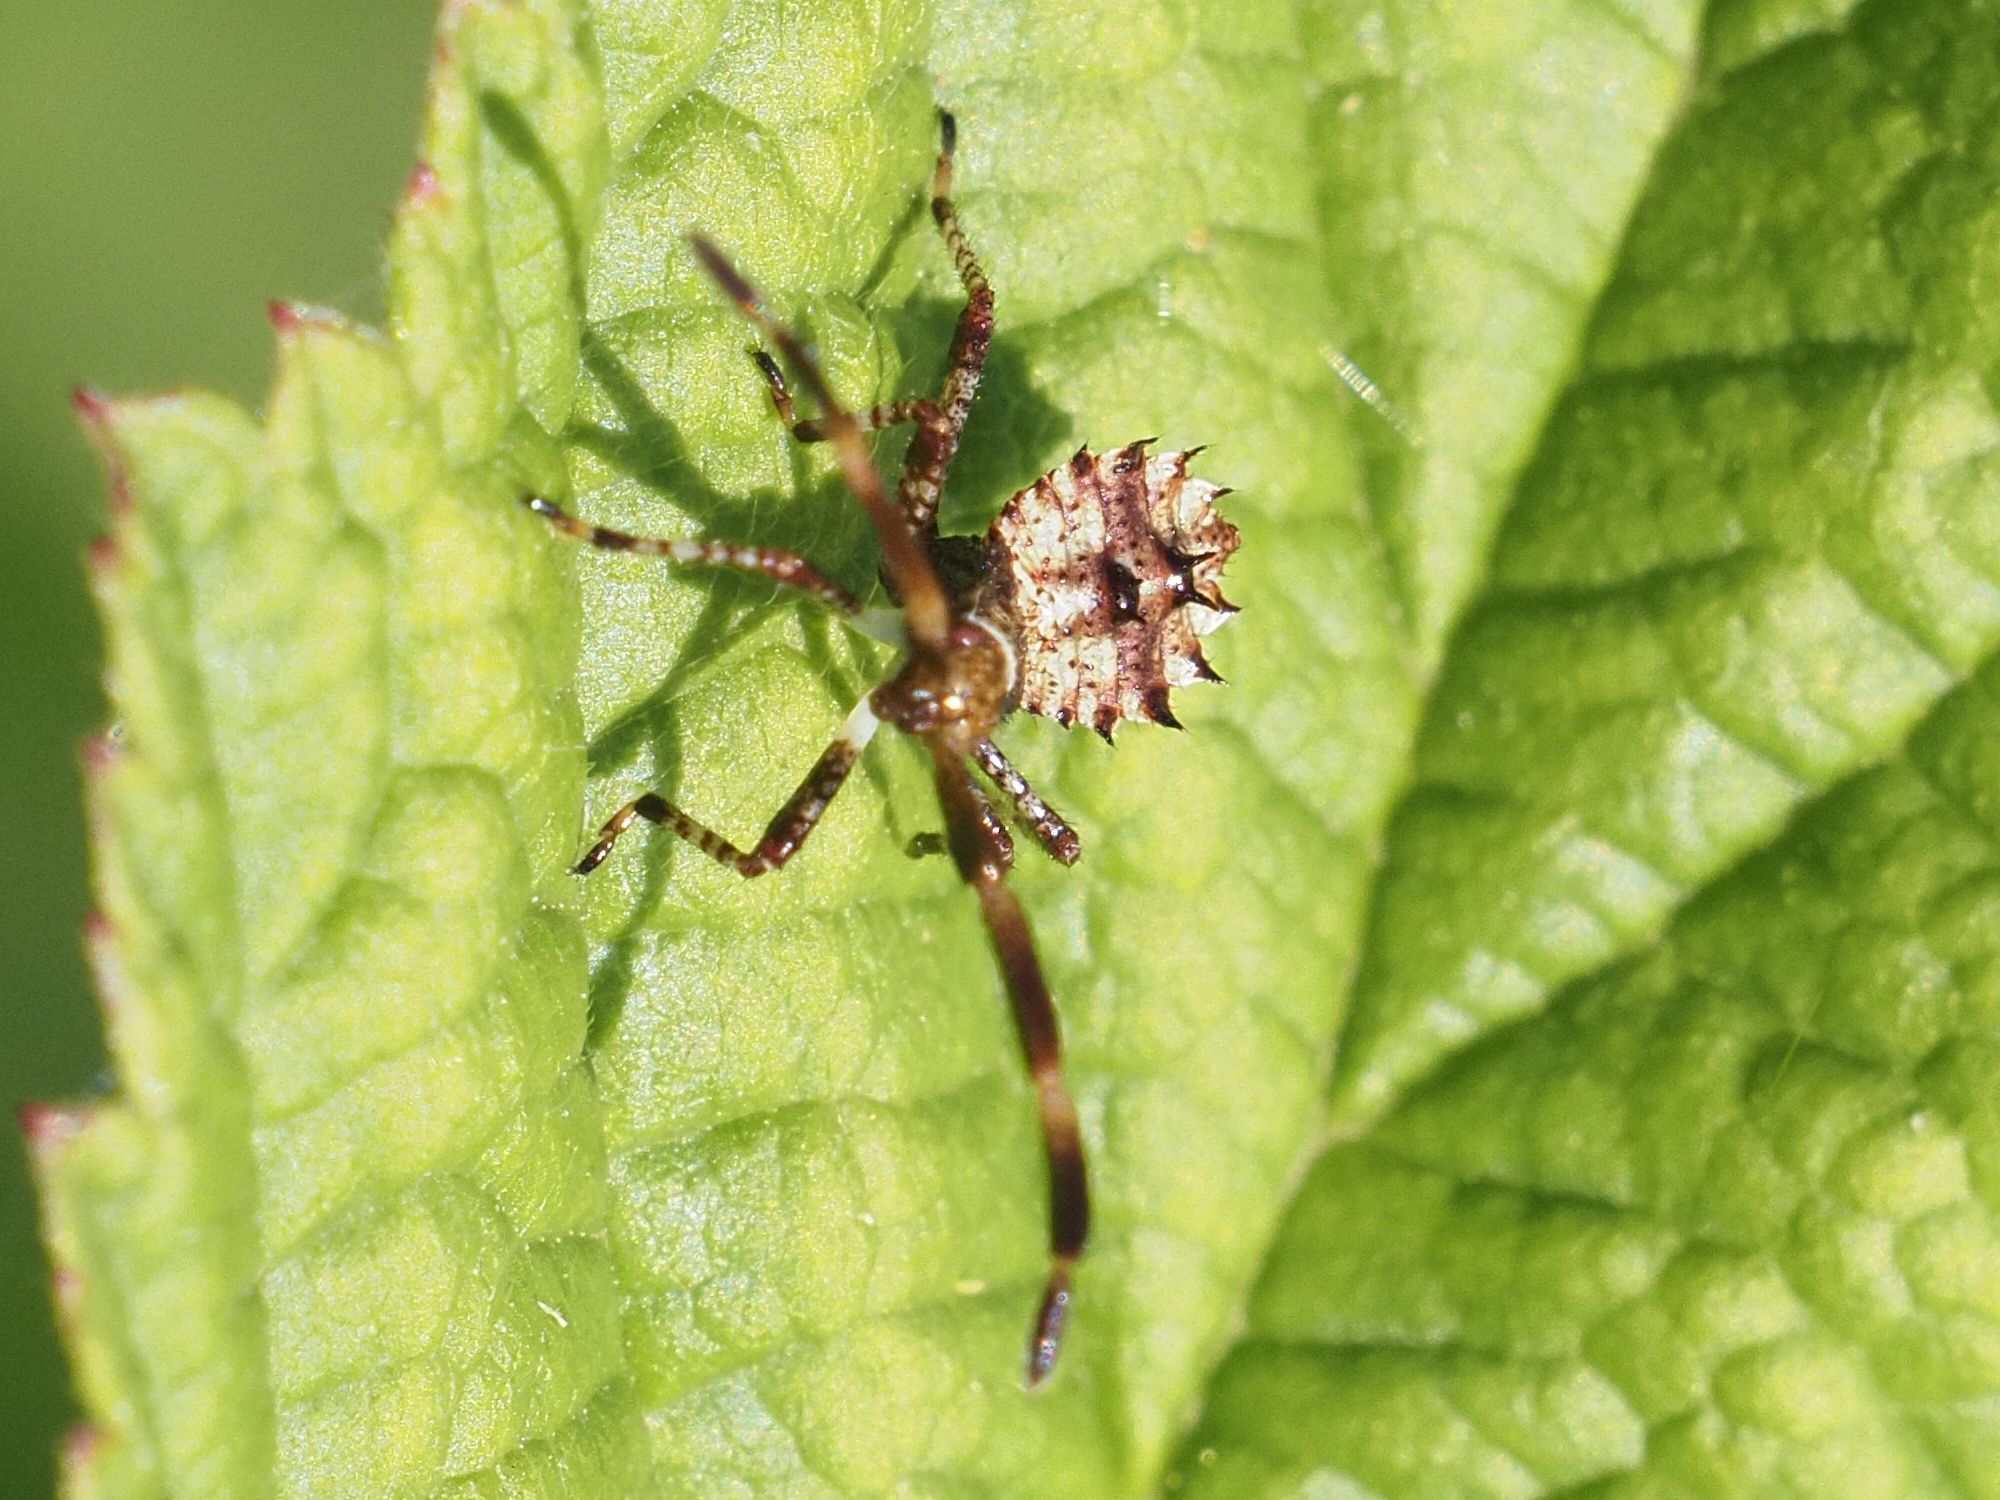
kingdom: Animalia
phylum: Arthropoda
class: Insecta
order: Hemiptera
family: Coreidae
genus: Coreus
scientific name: Coreus marginatus
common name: Dock bug
